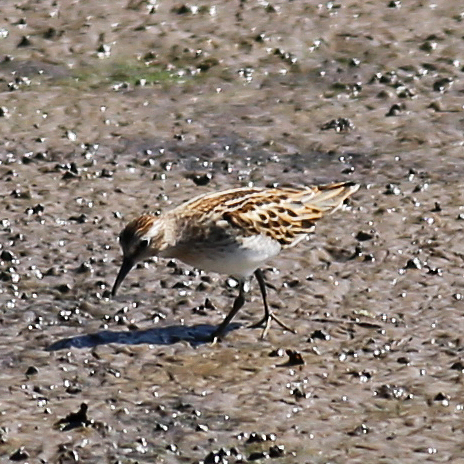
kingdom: Animalia
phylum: Chordata
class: Aves
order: Charadriiformes
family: Scolopacidae
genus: Calidris
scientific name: Calidris minutilla
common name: Least sandpiper
